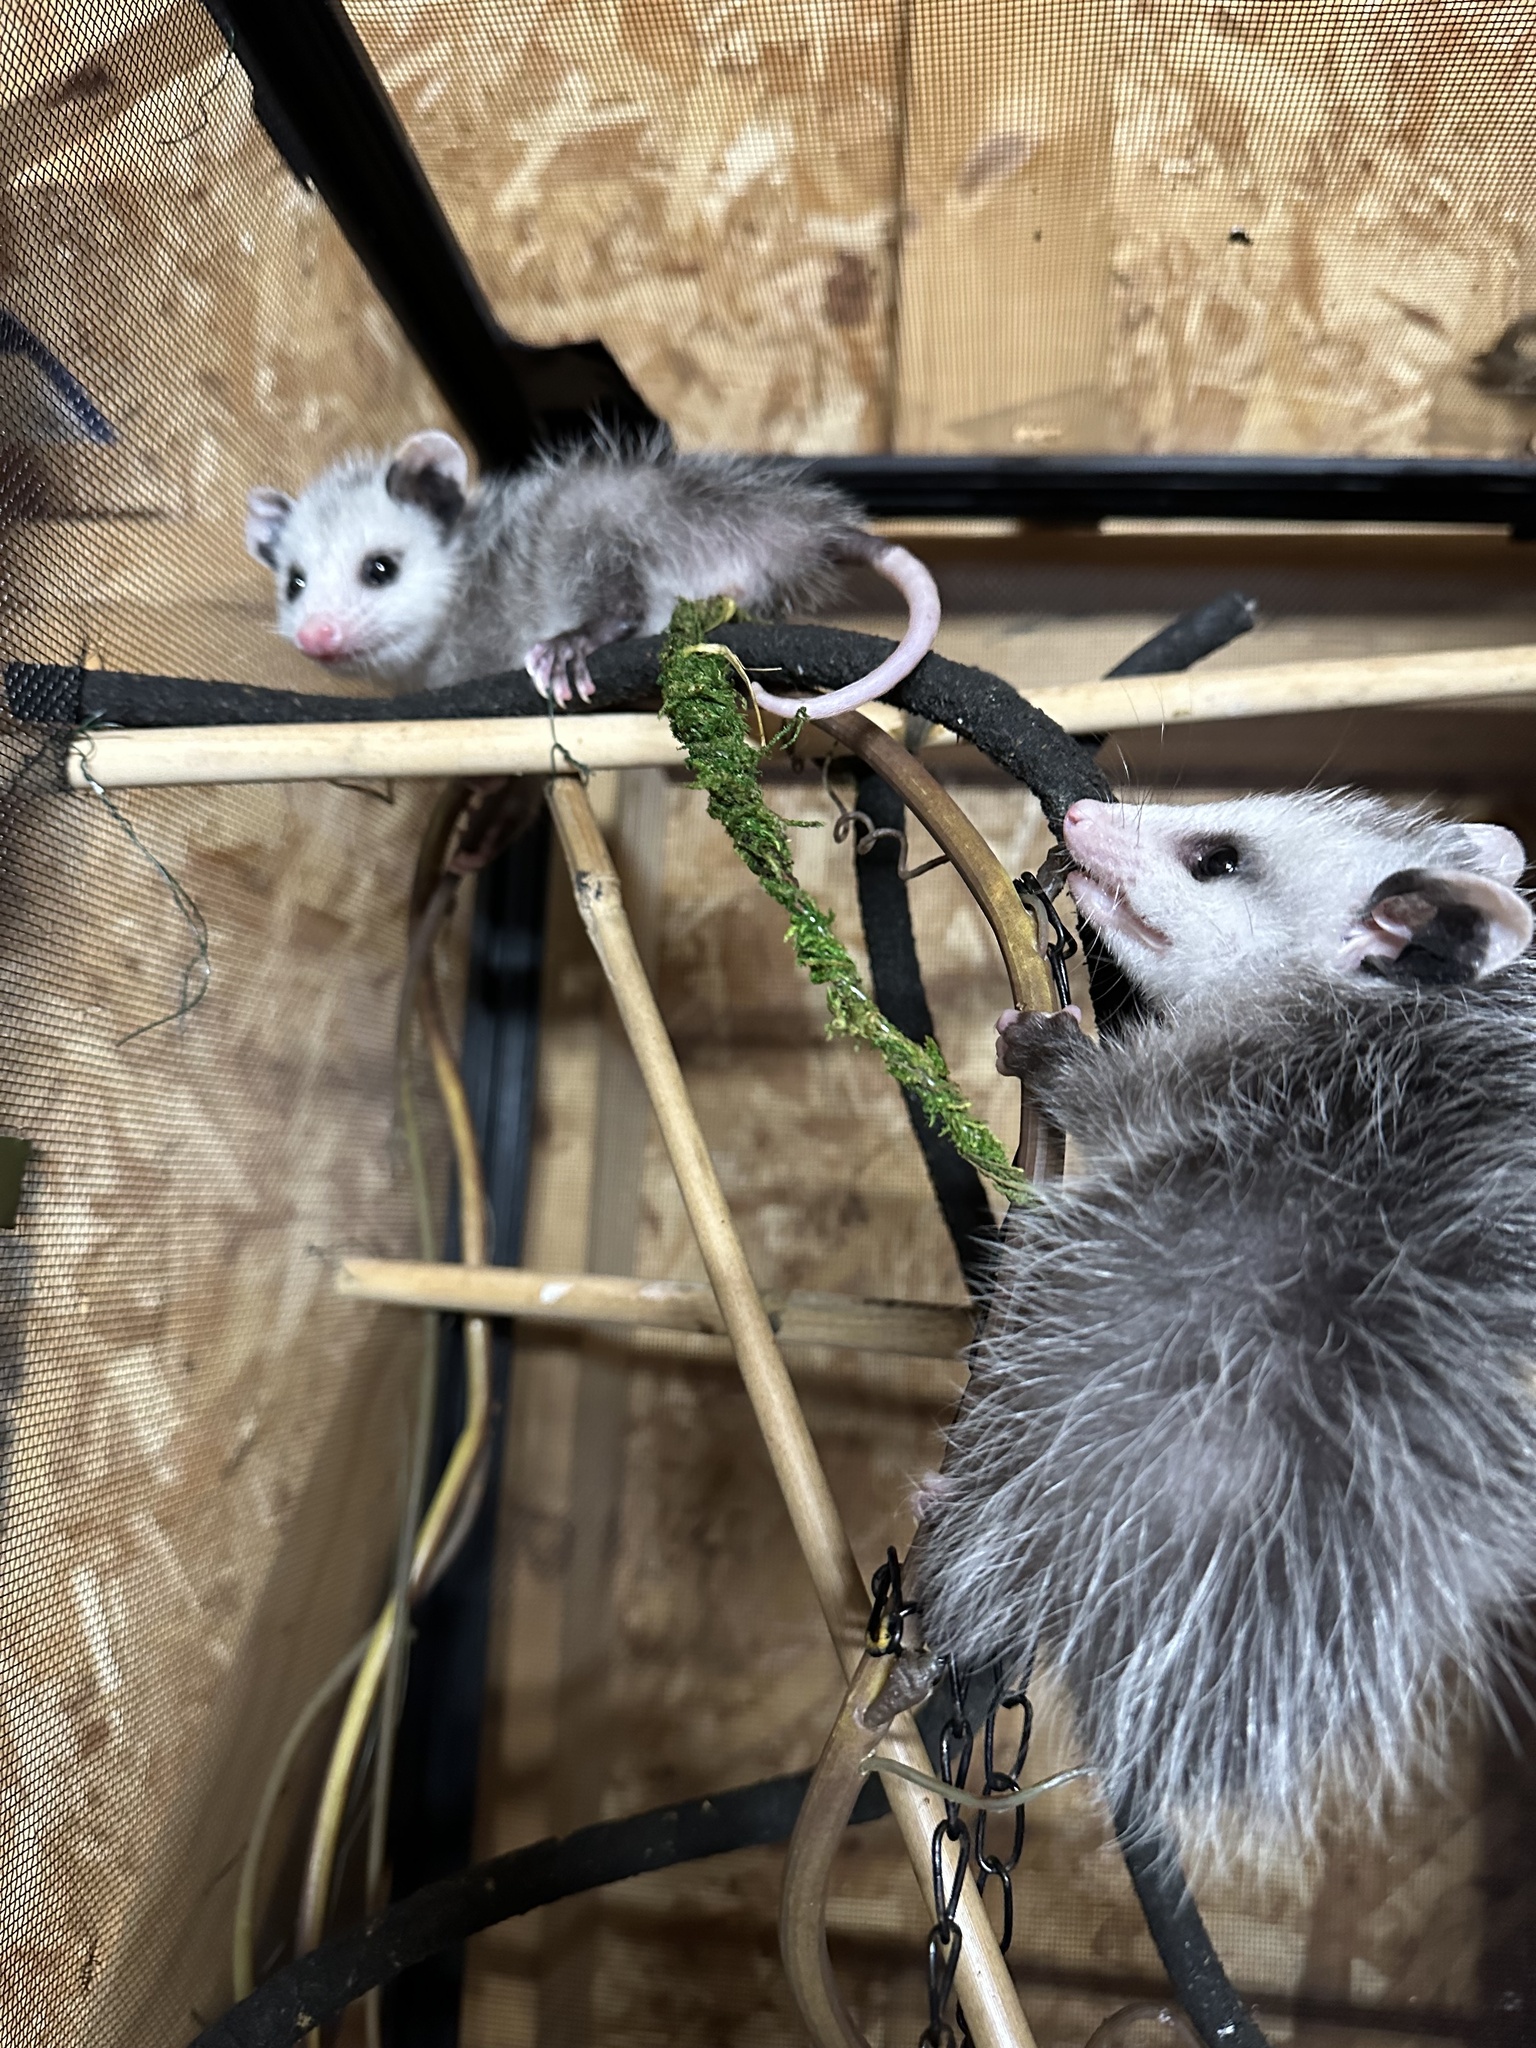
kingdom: Animalia
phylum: Chordata
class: Mammalia
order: Didelphimorphia
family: Didelphidae
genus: Didelphis
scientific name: Didelphis virginiana
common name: Virginia opossum
